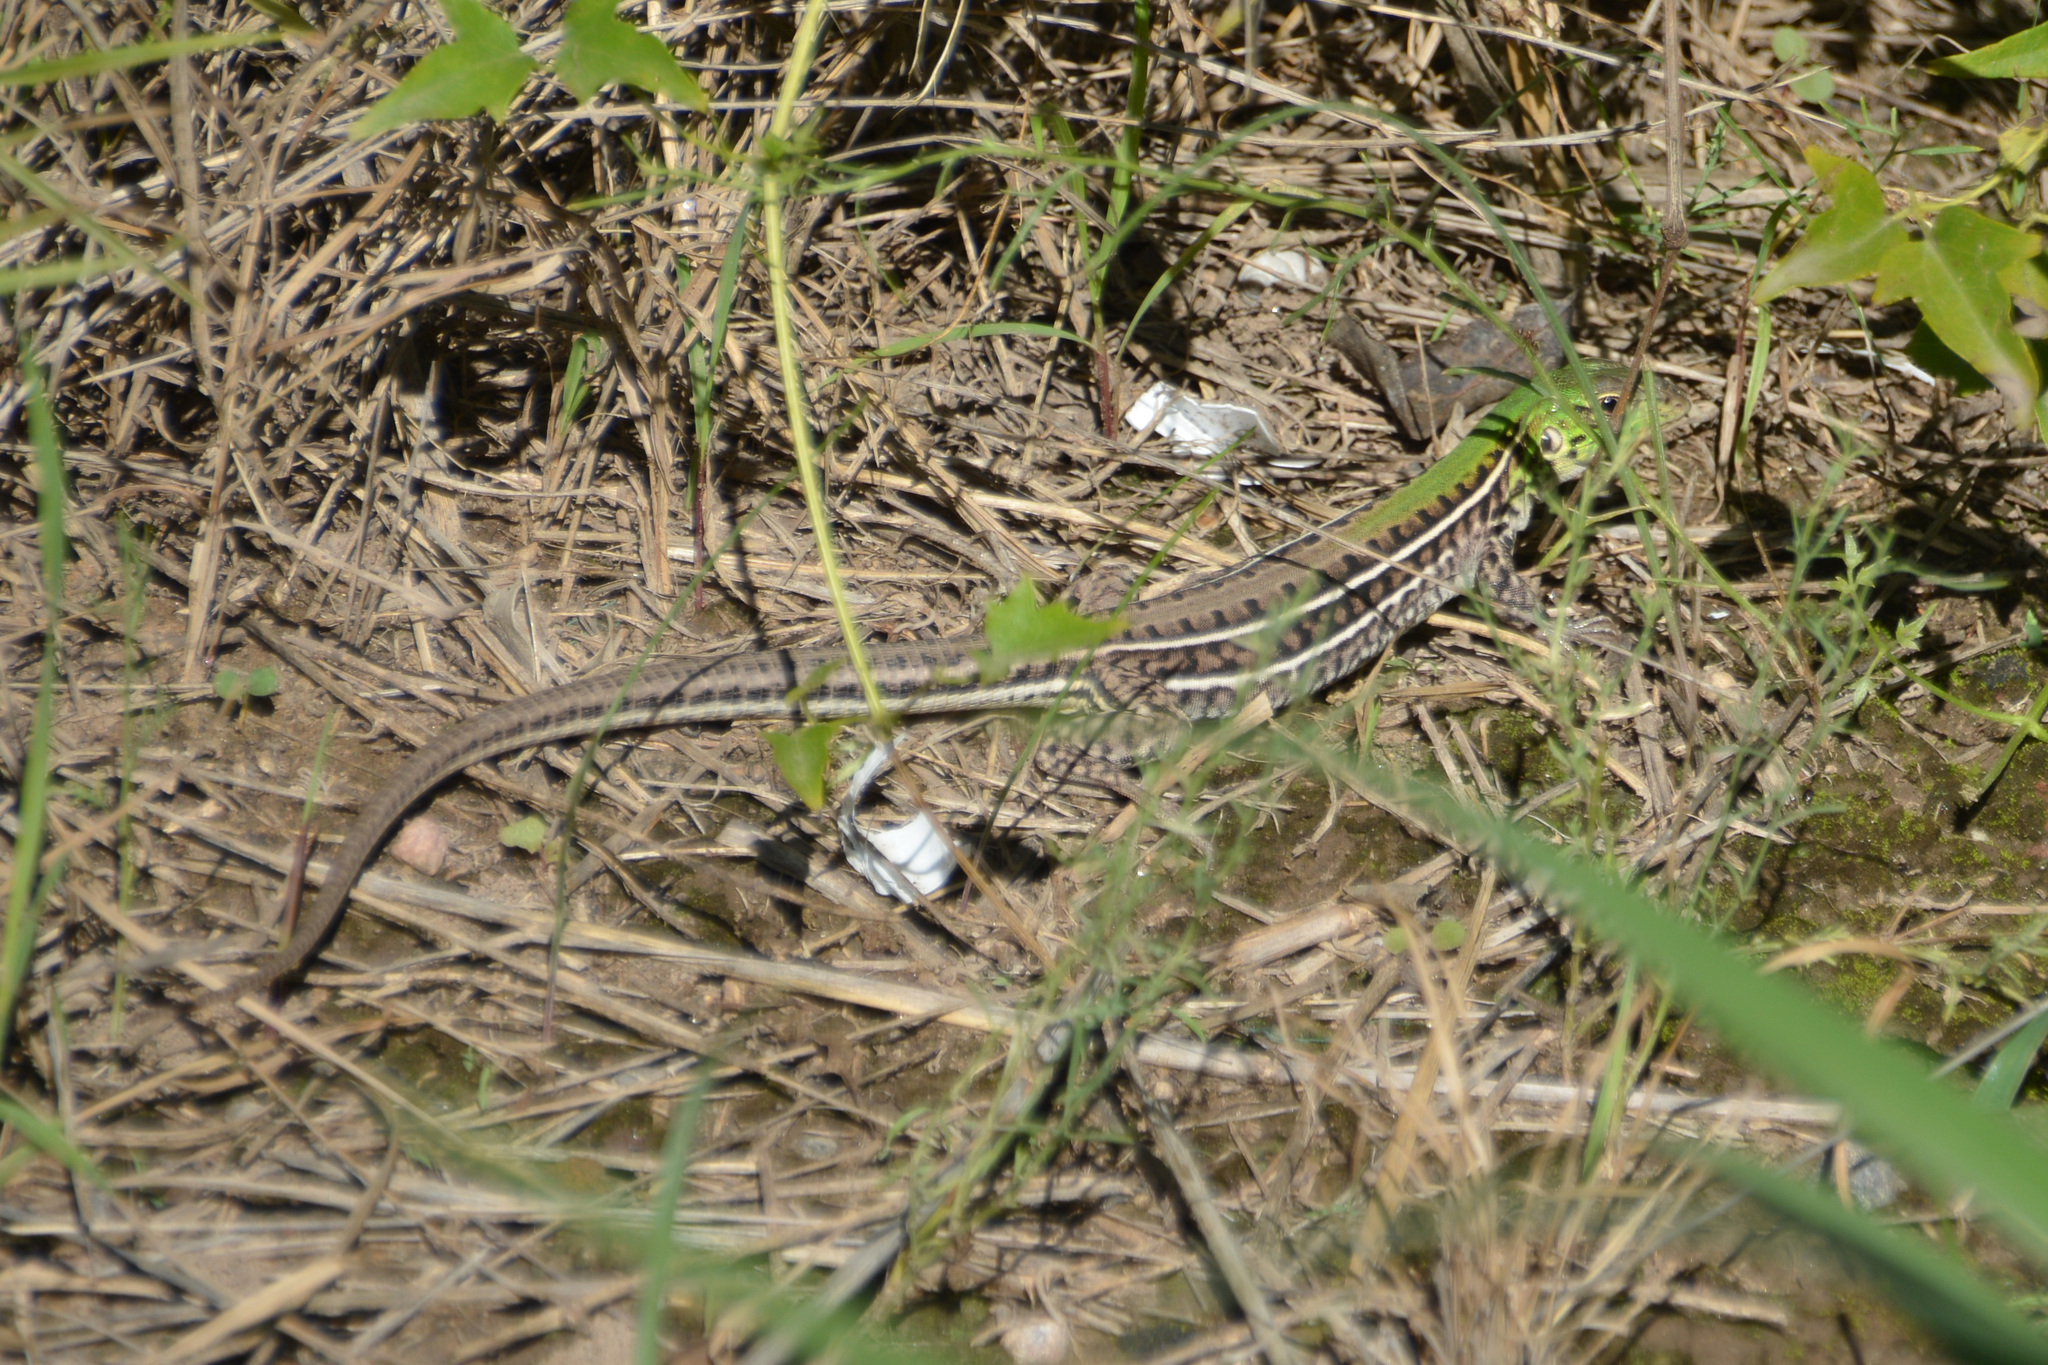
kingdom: Animalia
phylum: Chordata
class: Squamata
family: Teiidae
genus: Teius
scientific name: Teius suquiensis
